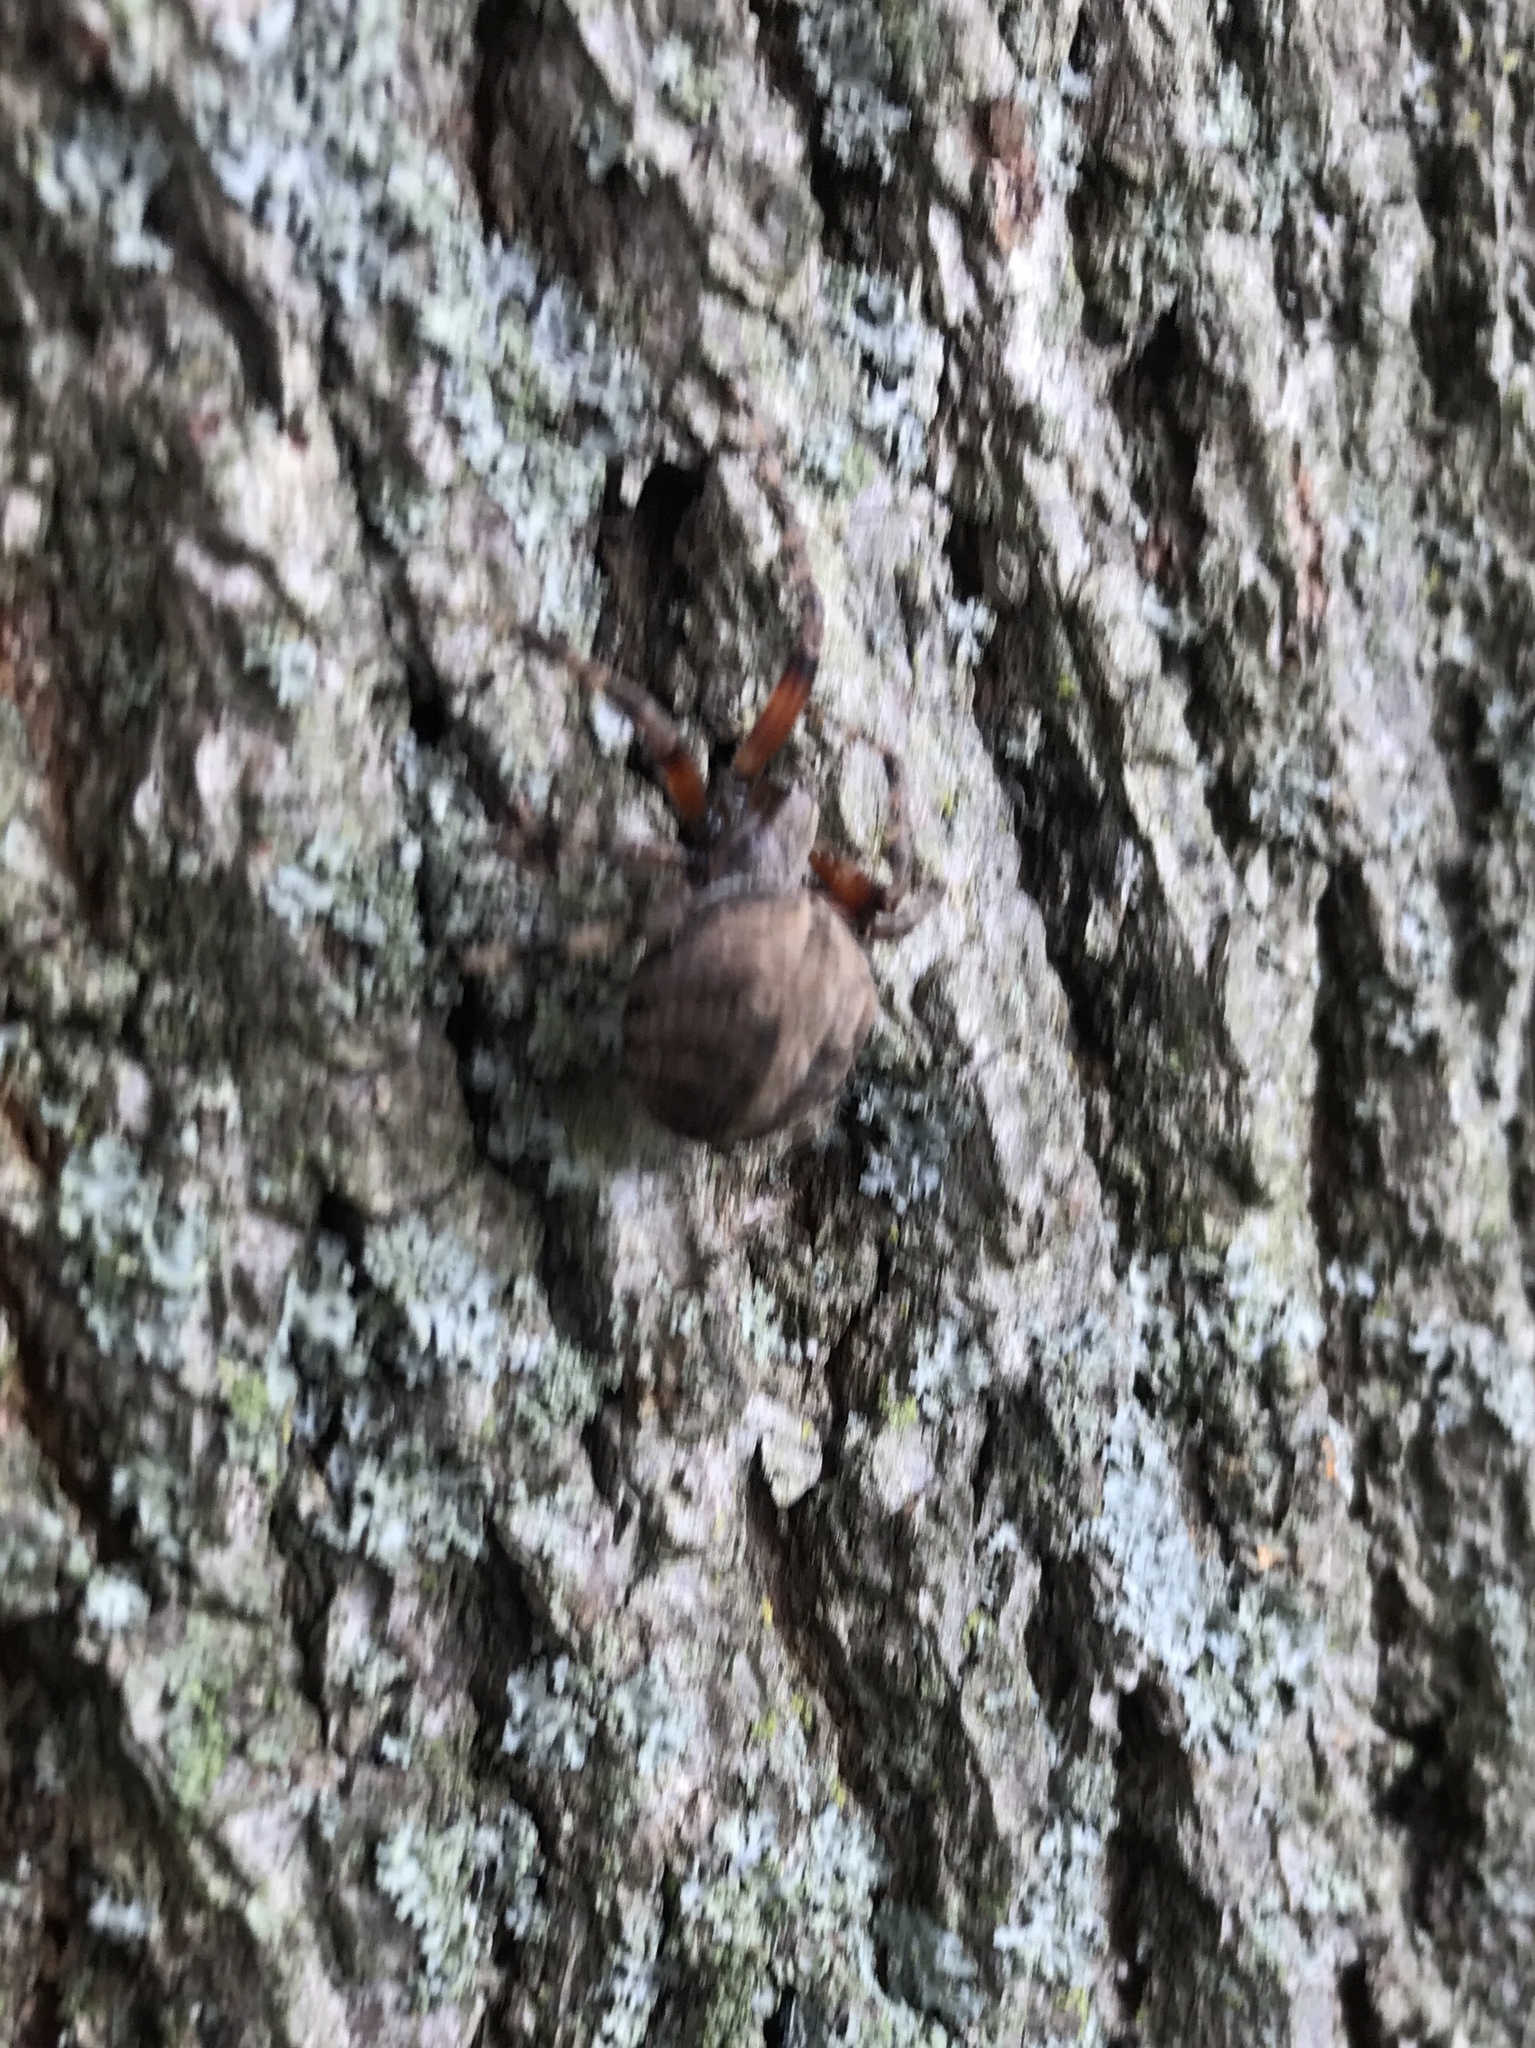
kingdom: Animalia
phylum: Arthropoda
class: Arachnida
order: Araneae
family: Araneidae
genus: Neoscona
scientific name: Neoscona crucifera
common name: Spotted orbweaver
